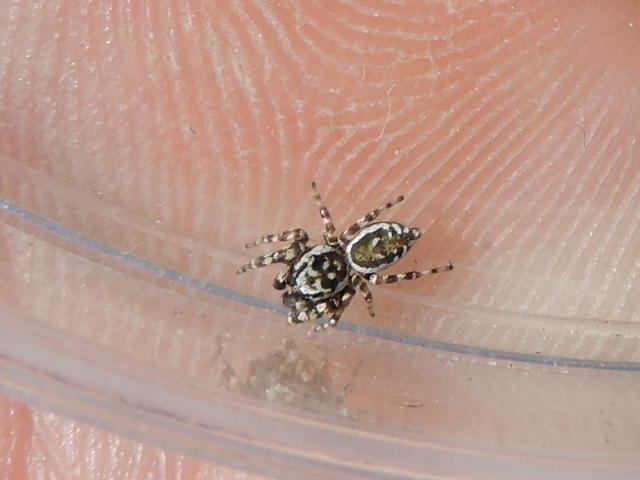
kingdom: Animalia
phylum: Arthropoda
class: Arachnida
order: Araneae
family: Salticidae
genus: Pelegrina
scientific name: Pelegrina galathea
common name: Jumping spiders
